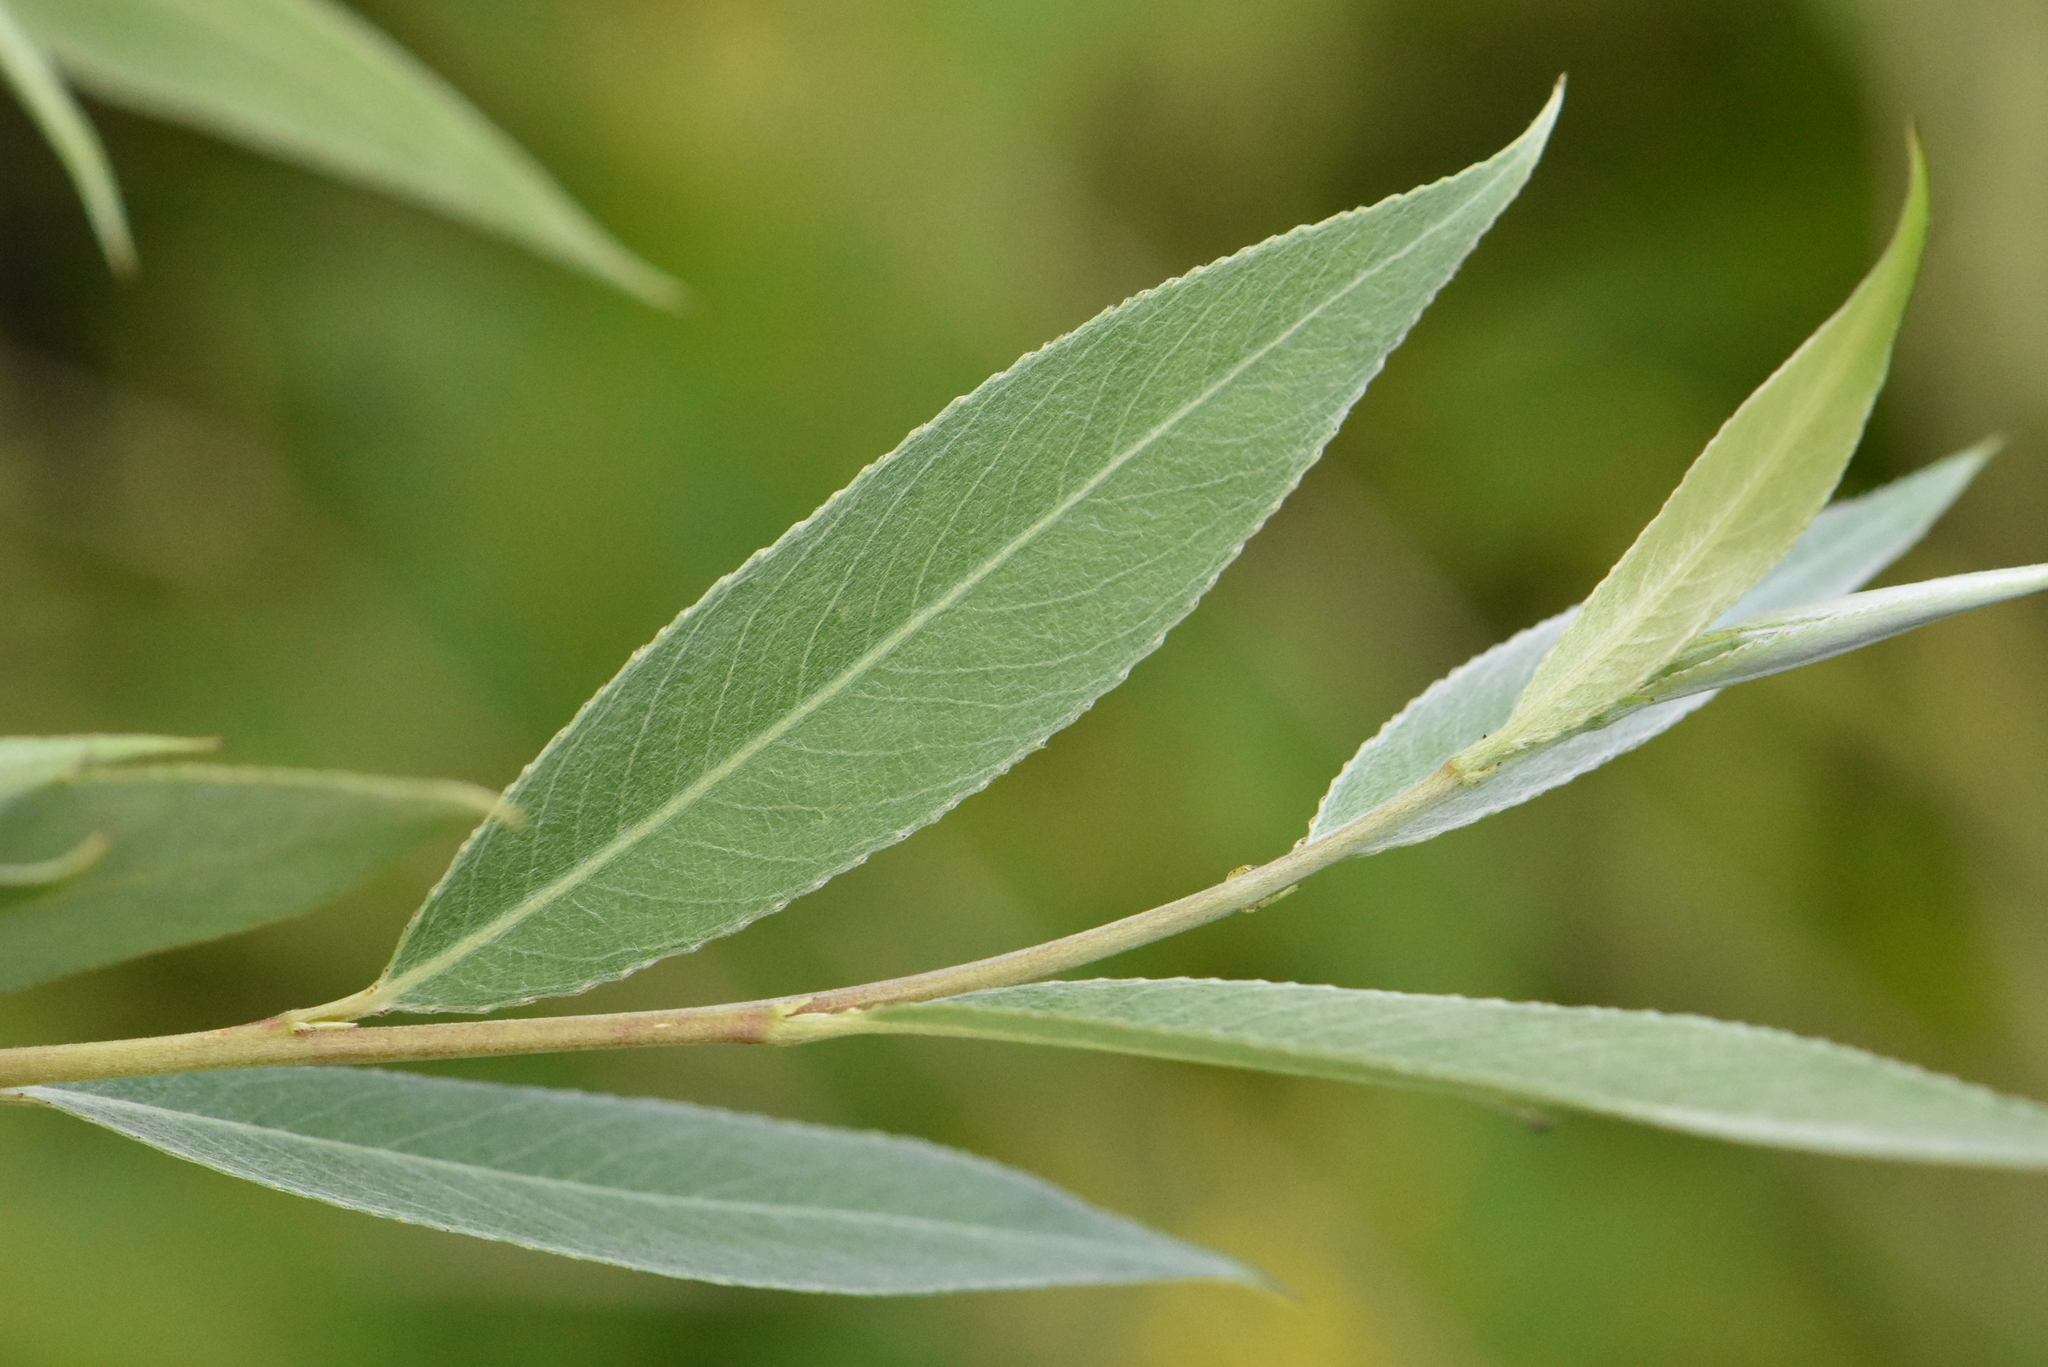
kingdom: Plantae
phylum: Tracheophyta
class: Magnoliopsida
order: Malpighiales
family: Salicaceae
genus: Salix
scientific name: Salix alba
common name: White willow
